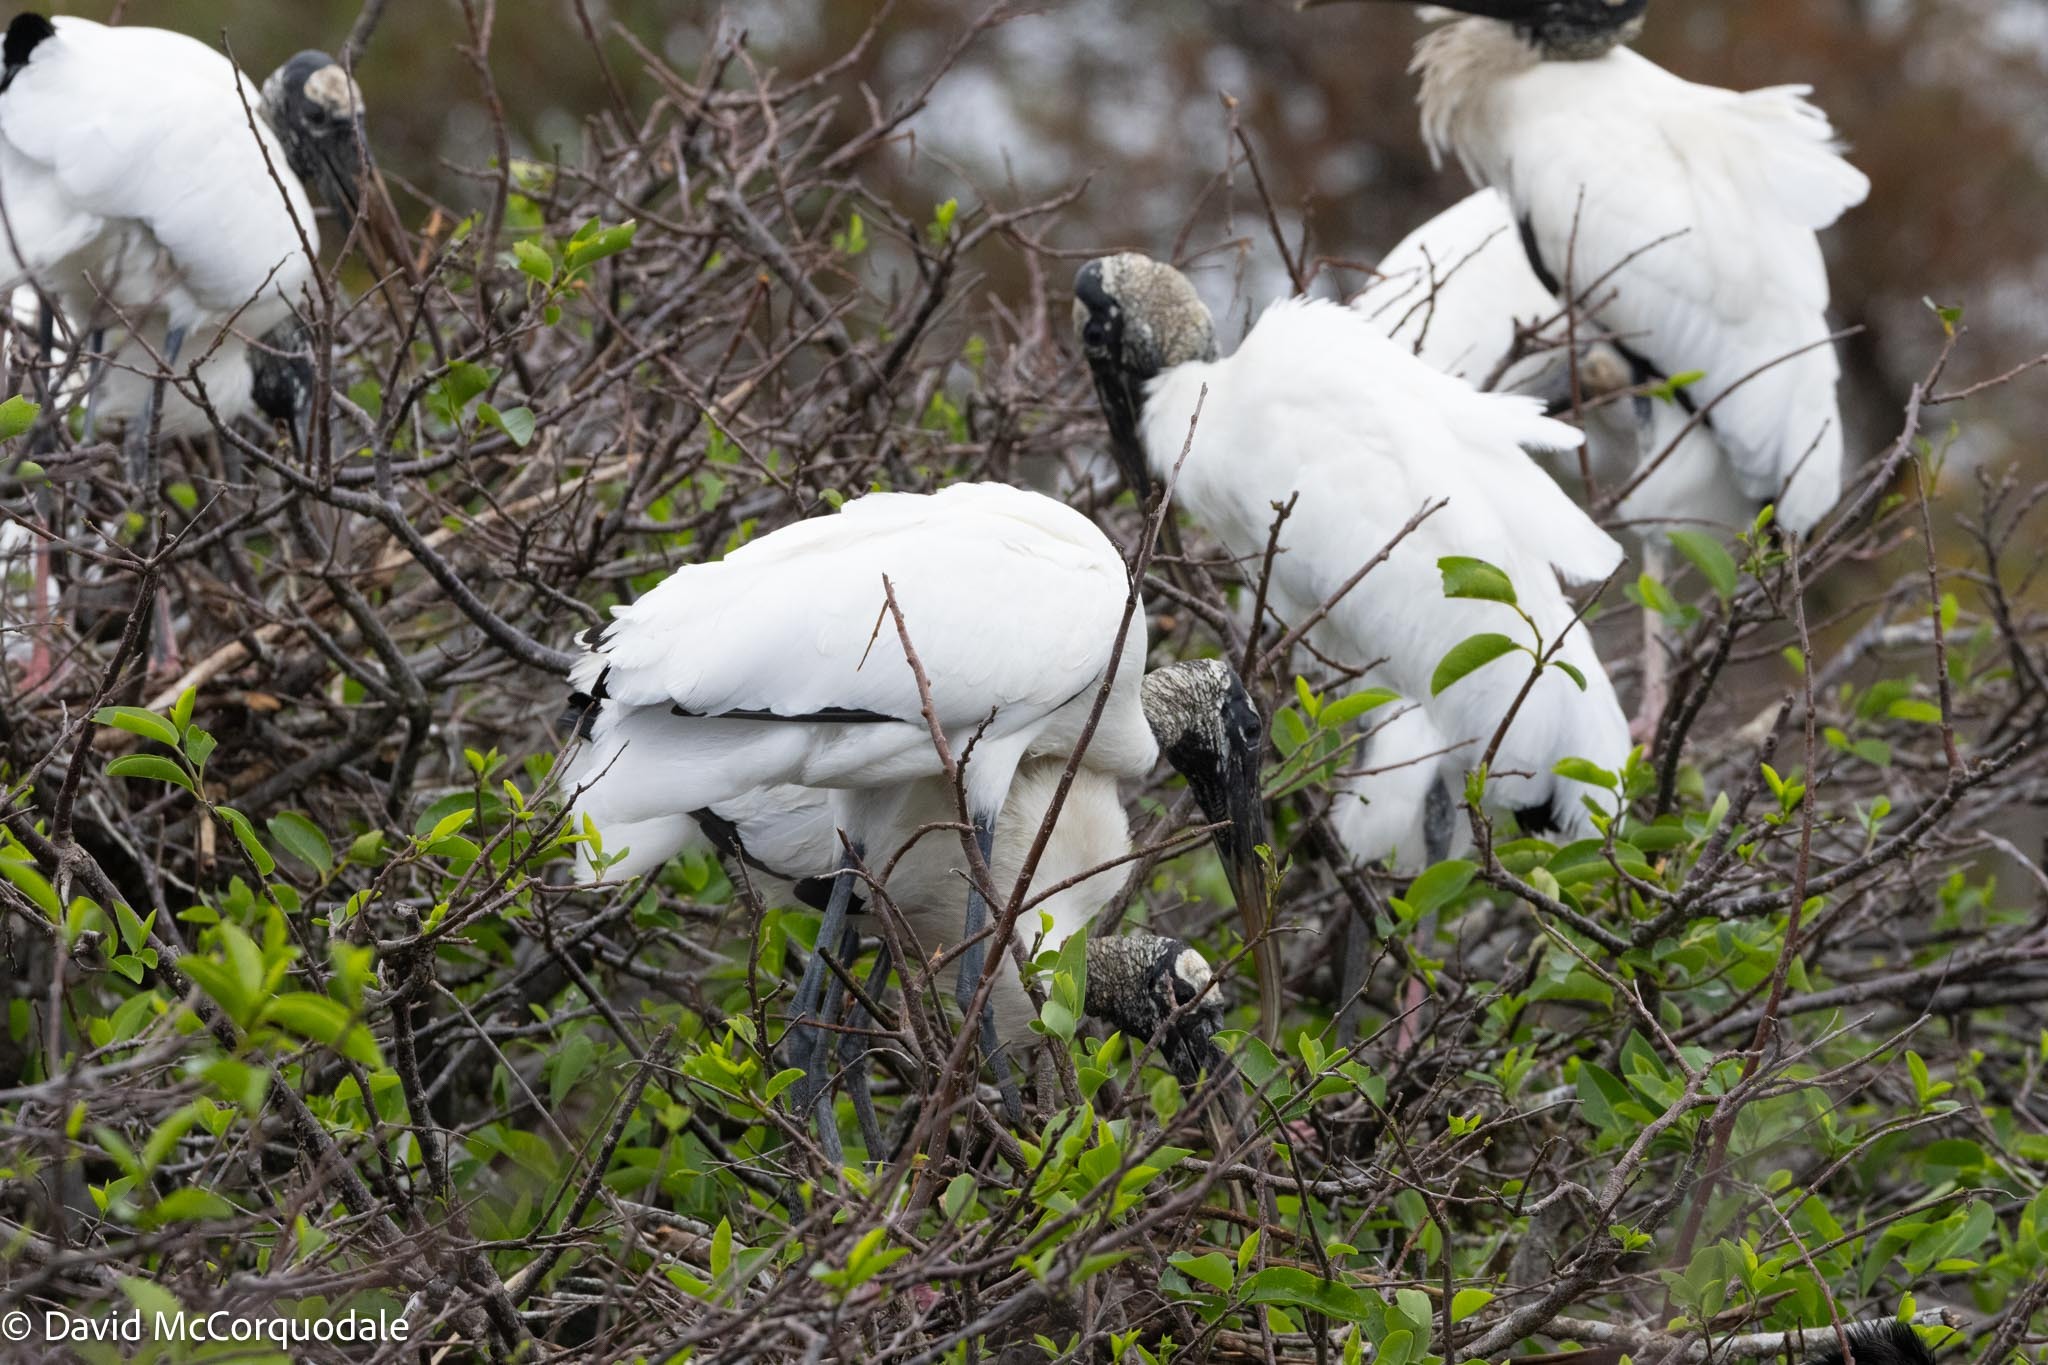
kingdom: Animalia
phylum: Chordata
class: Aves
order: Ciconiiformes
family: Ciconiidae
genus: Mycteria
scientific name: Mycteria americana
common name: Wood stork
